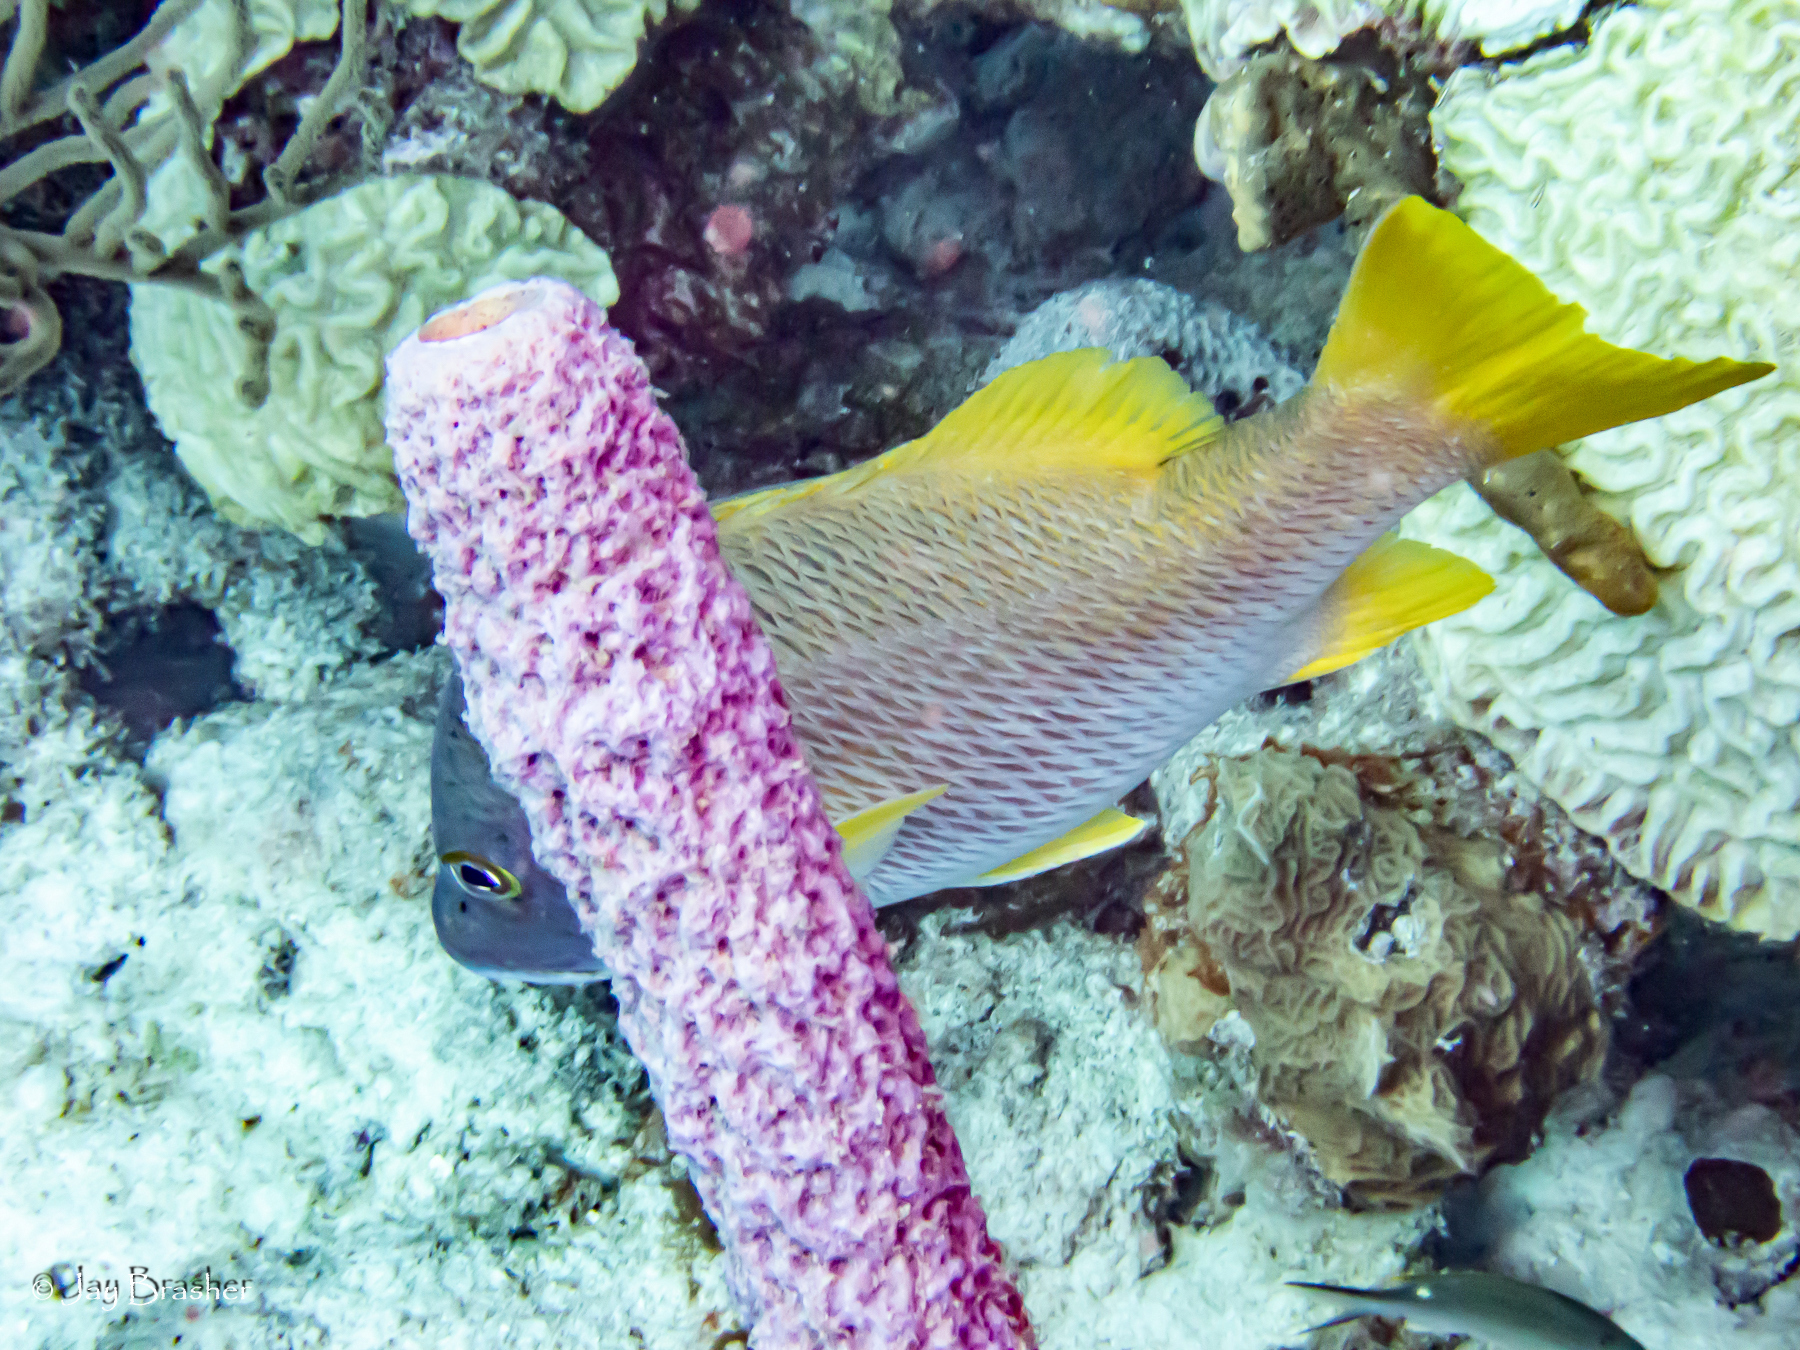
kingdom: Animalia
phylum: Chordata
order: Perciformes
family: Lutjanidae
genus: Lutjanus
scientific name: Lutjanus apodus
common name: Schoolmaster
